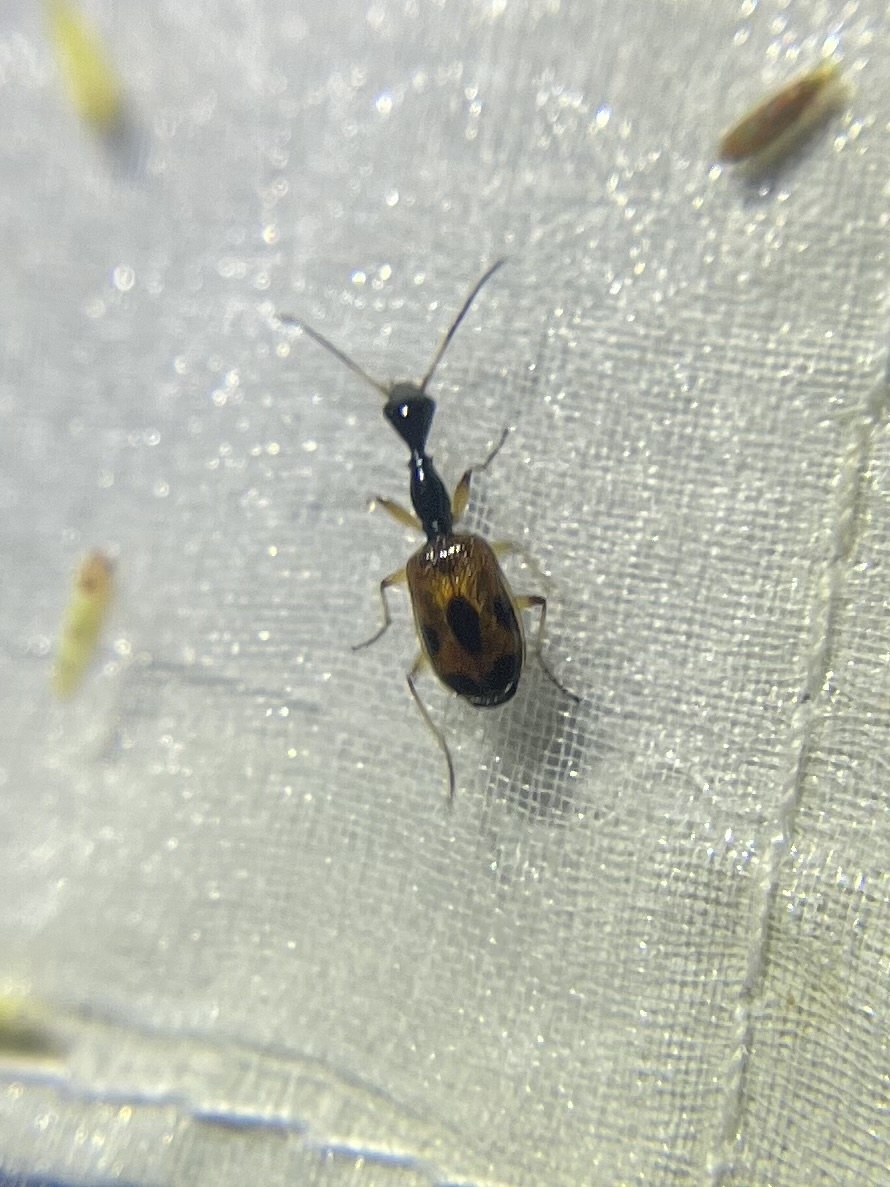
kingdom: Animalia
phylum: Arthropoda
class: Insecta
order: Coleoptera
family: Carabidae
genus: Colliuris
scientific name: Colliuris pensylvanica
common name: Long-necked ground beetle
